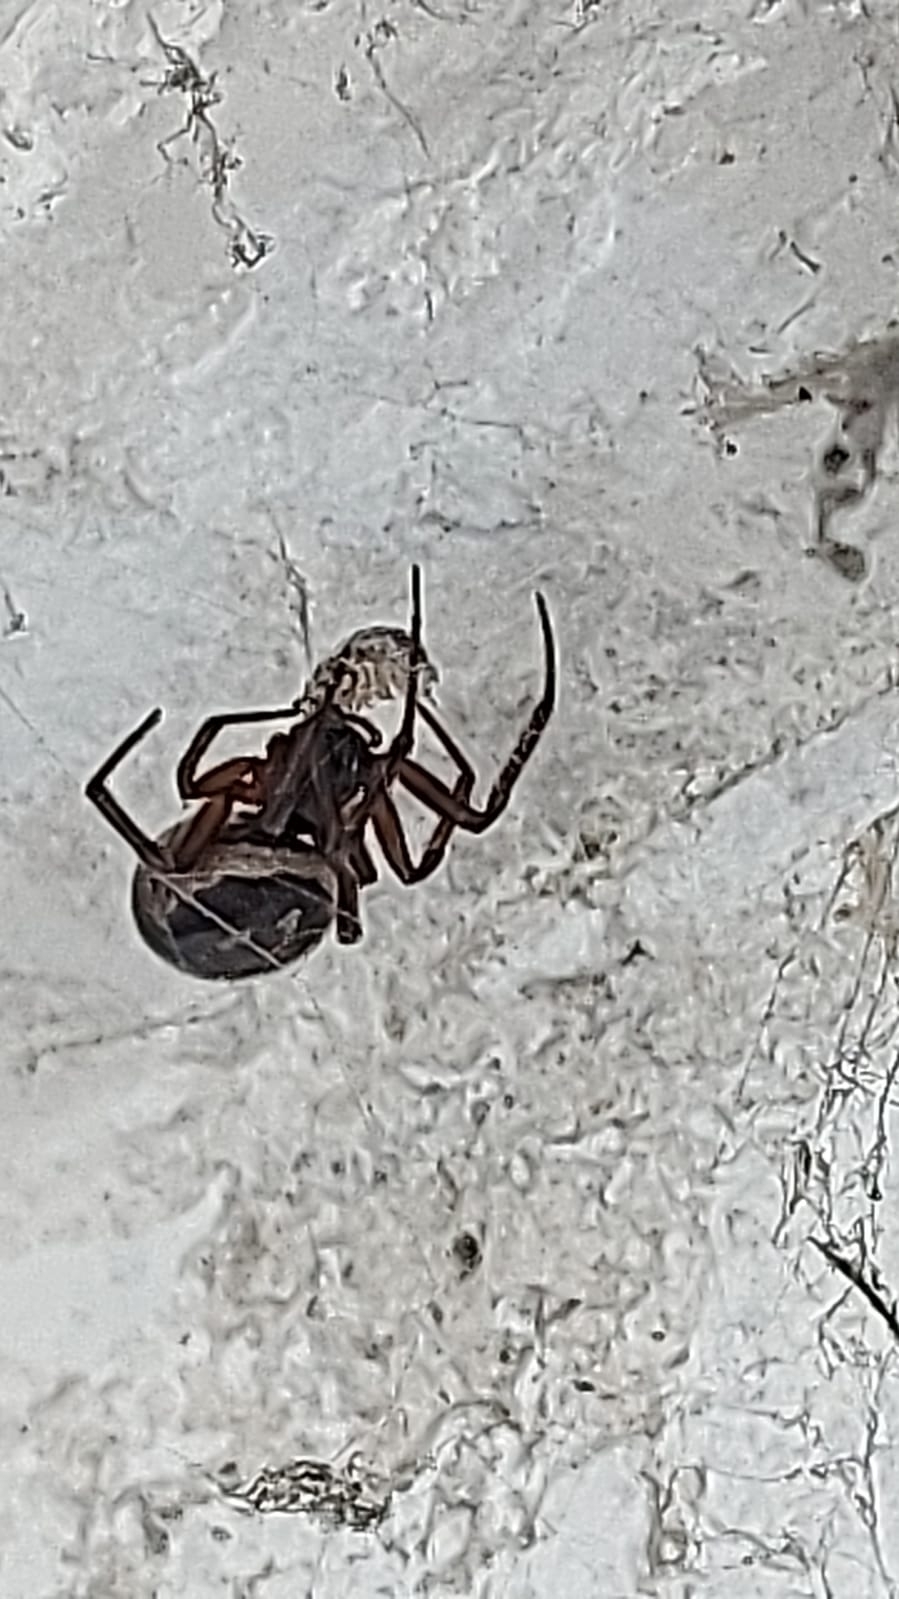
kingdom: Animalia
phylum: Arthropoda
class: Arachnida
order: Araneae
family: Theridiidae
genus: Steatoda
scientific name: Steatoda nobilis
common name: Cobweb weaver
